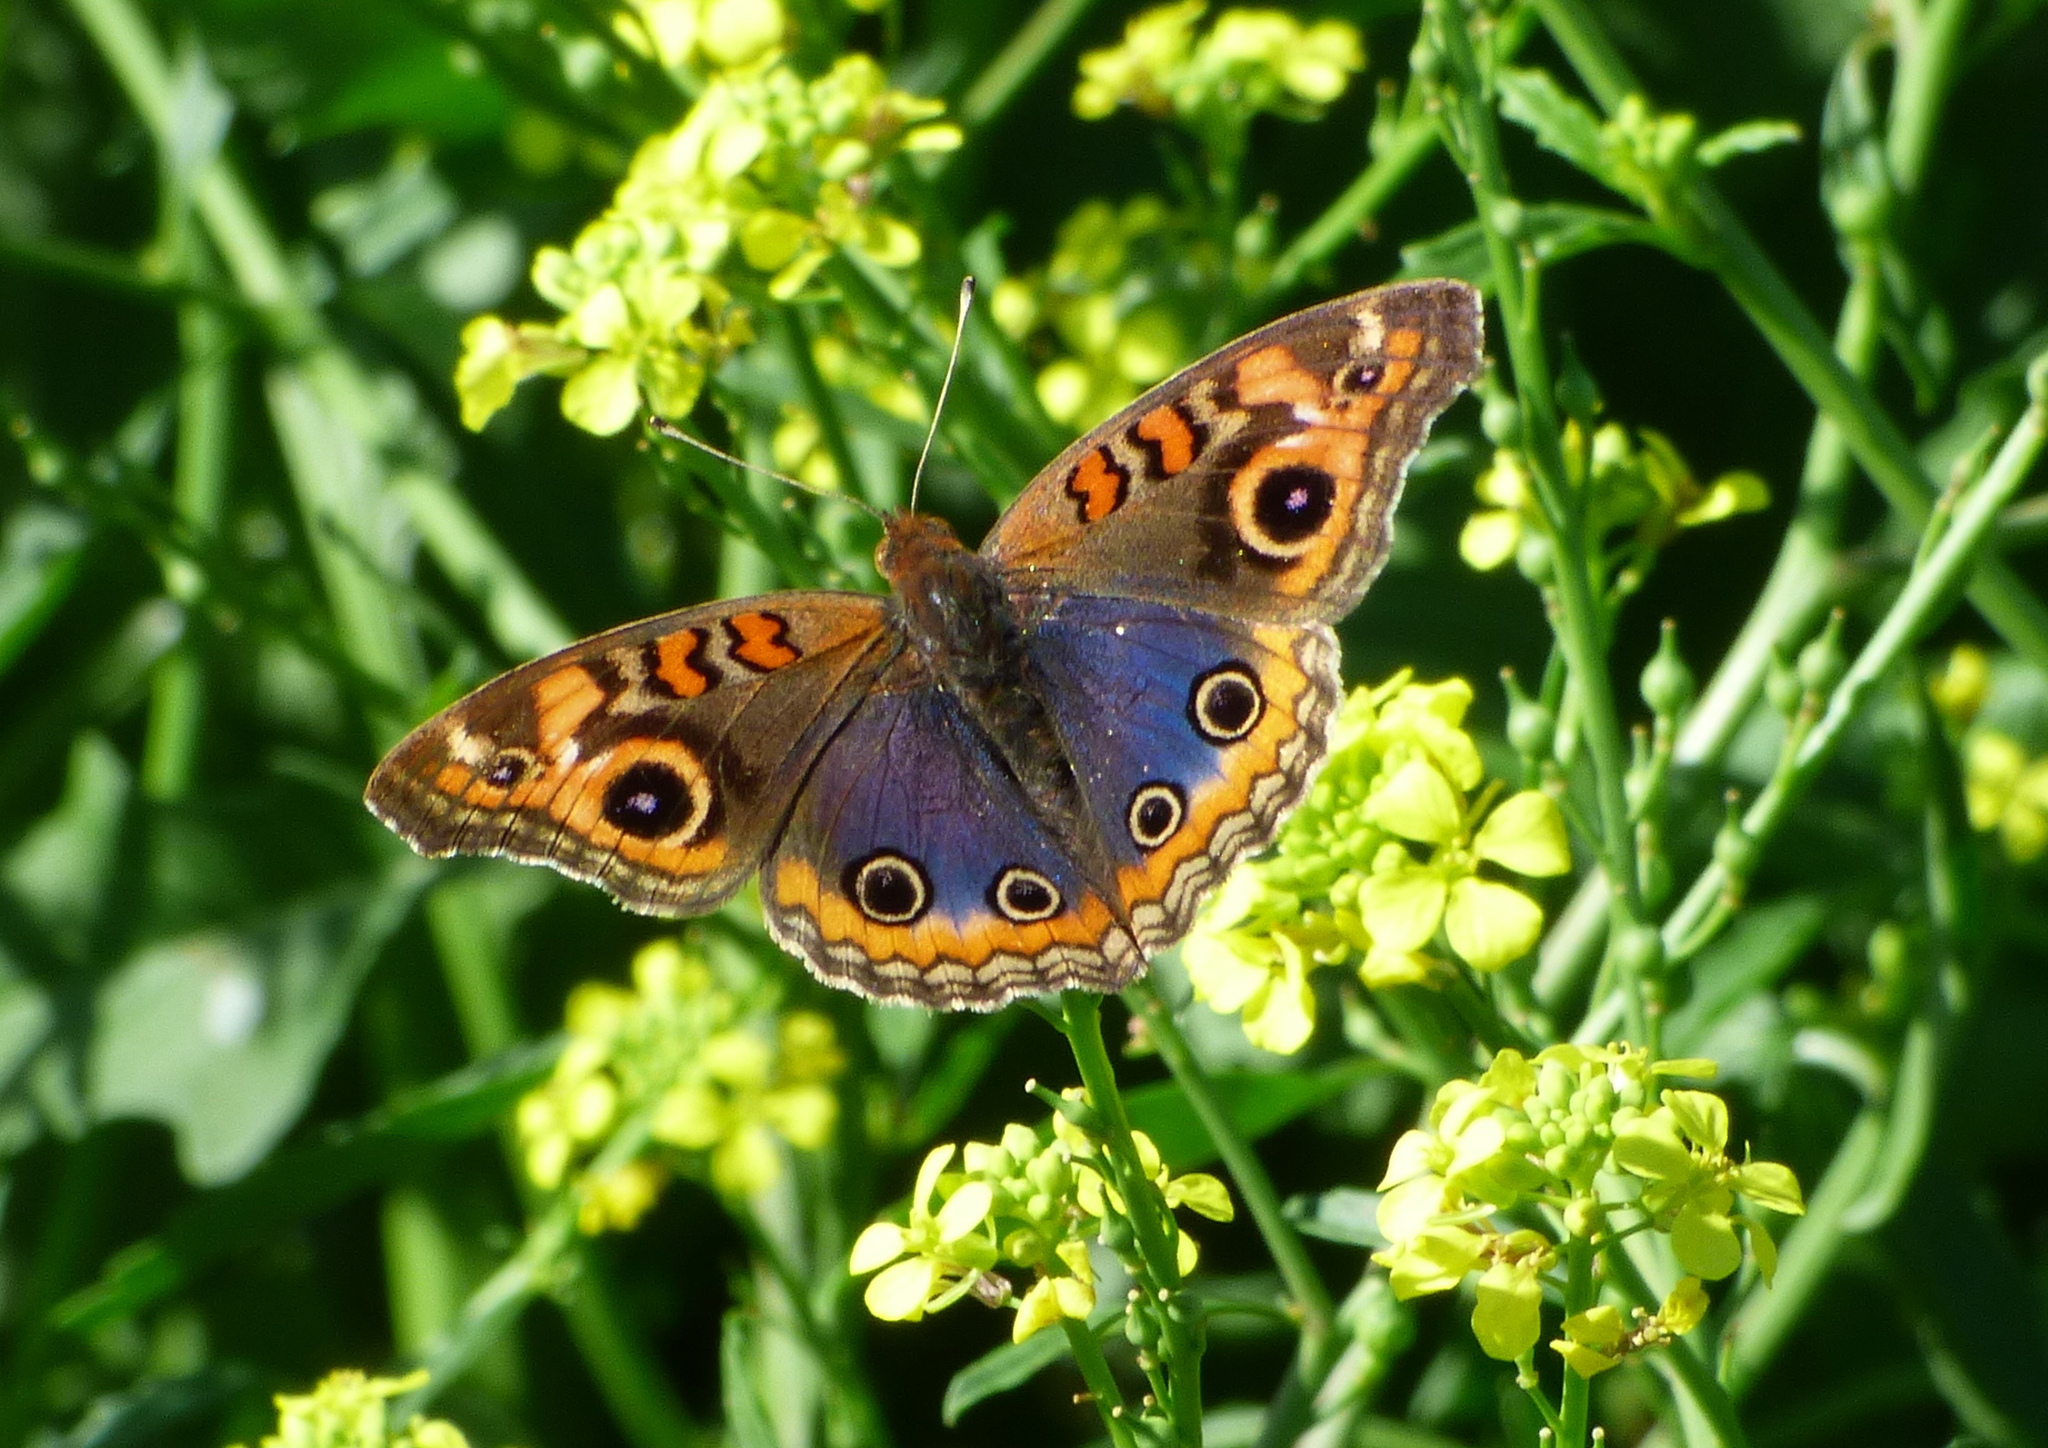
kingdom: Animalia
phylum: Arthropoda
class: Insecta
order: Lepidoptera
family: Nymphalidae
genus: Junonia
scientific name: Junonia lavinia
